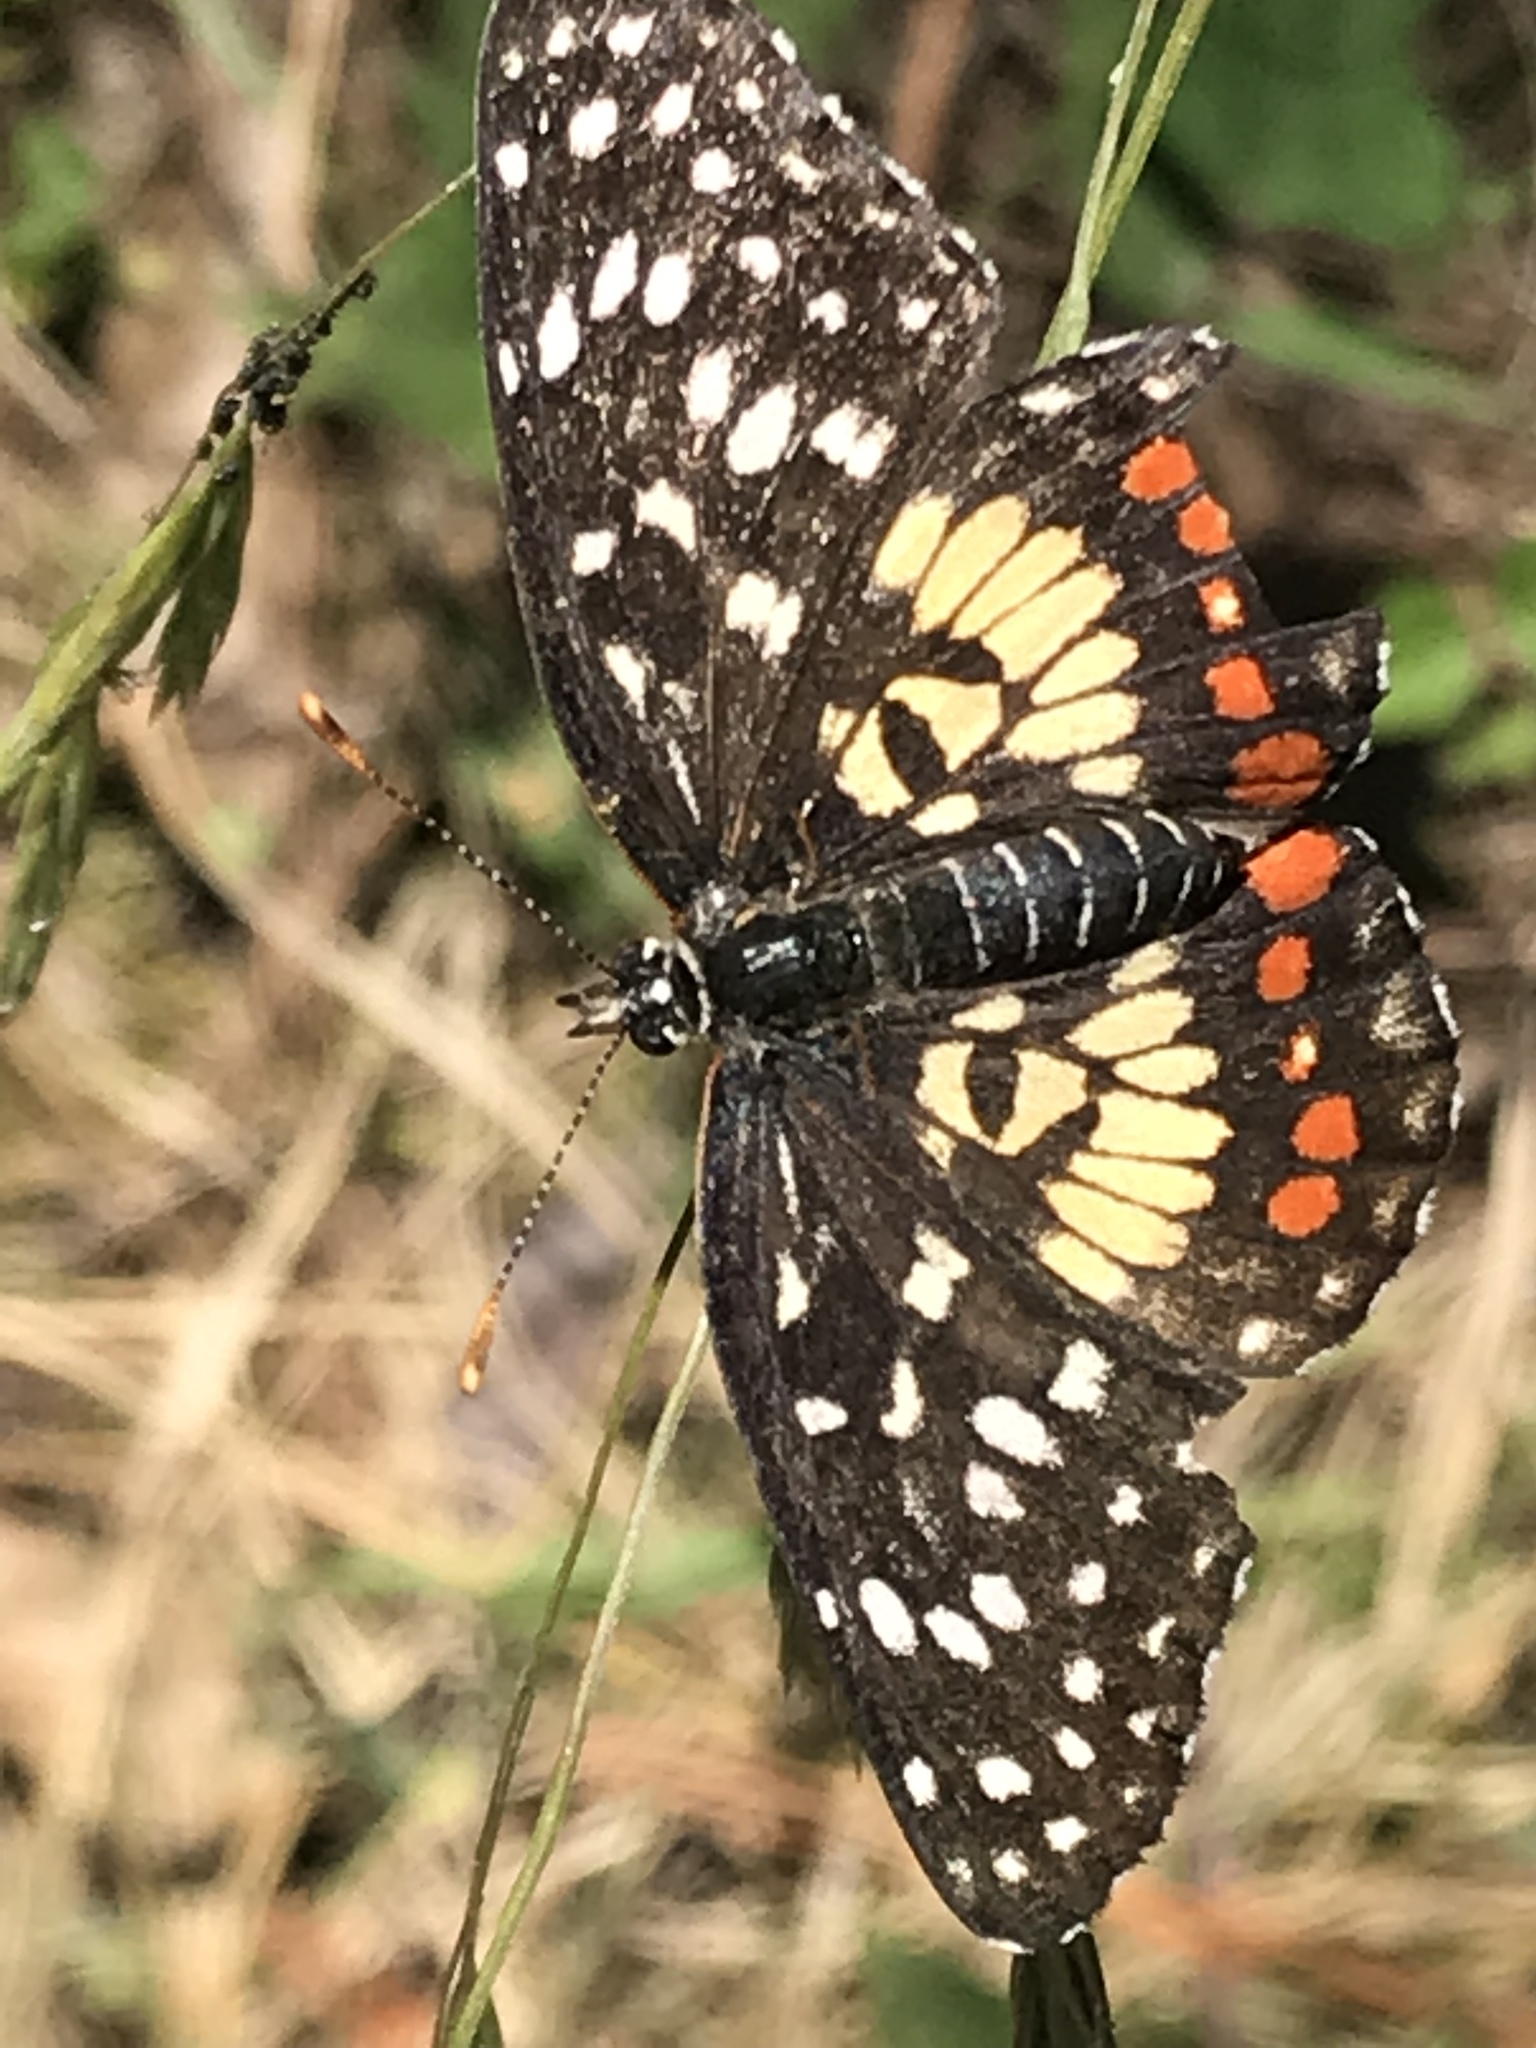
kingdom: Animalia
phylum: Arthropoda
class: Insecta
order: Lepidoptera
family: Nymphalidae
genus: Chlosyne
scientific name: Chlosyne marina
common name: Red-spotted patch
